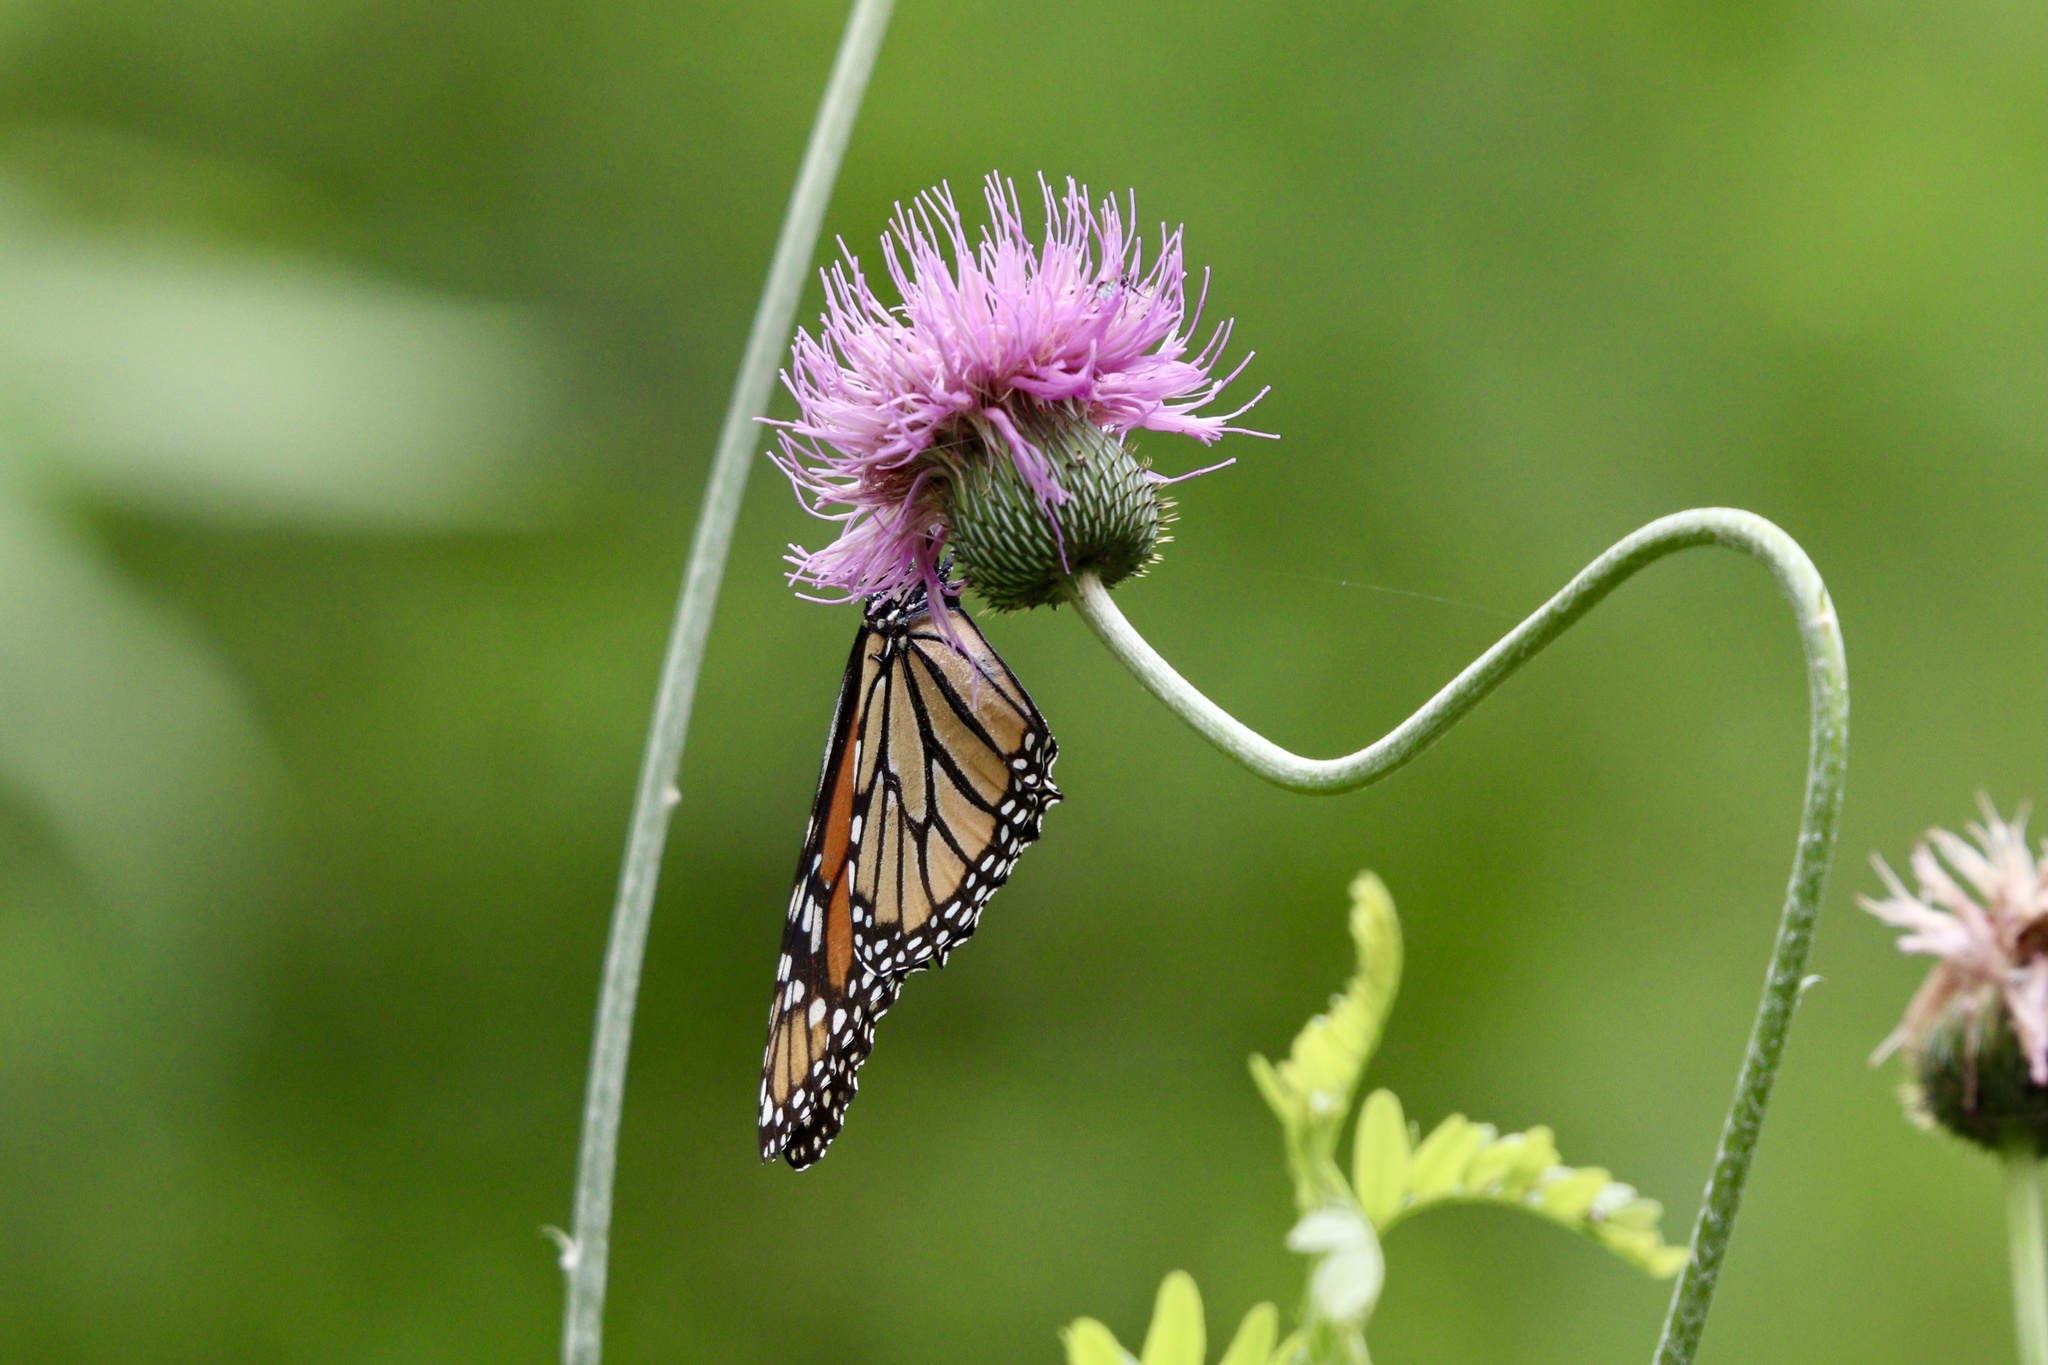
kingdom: Animalia
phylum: Arthropoda
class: Insecta
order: Lepidoptera
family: Nymphalidae
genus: Danaus
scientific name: Danaus plexippus
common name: Monarch
